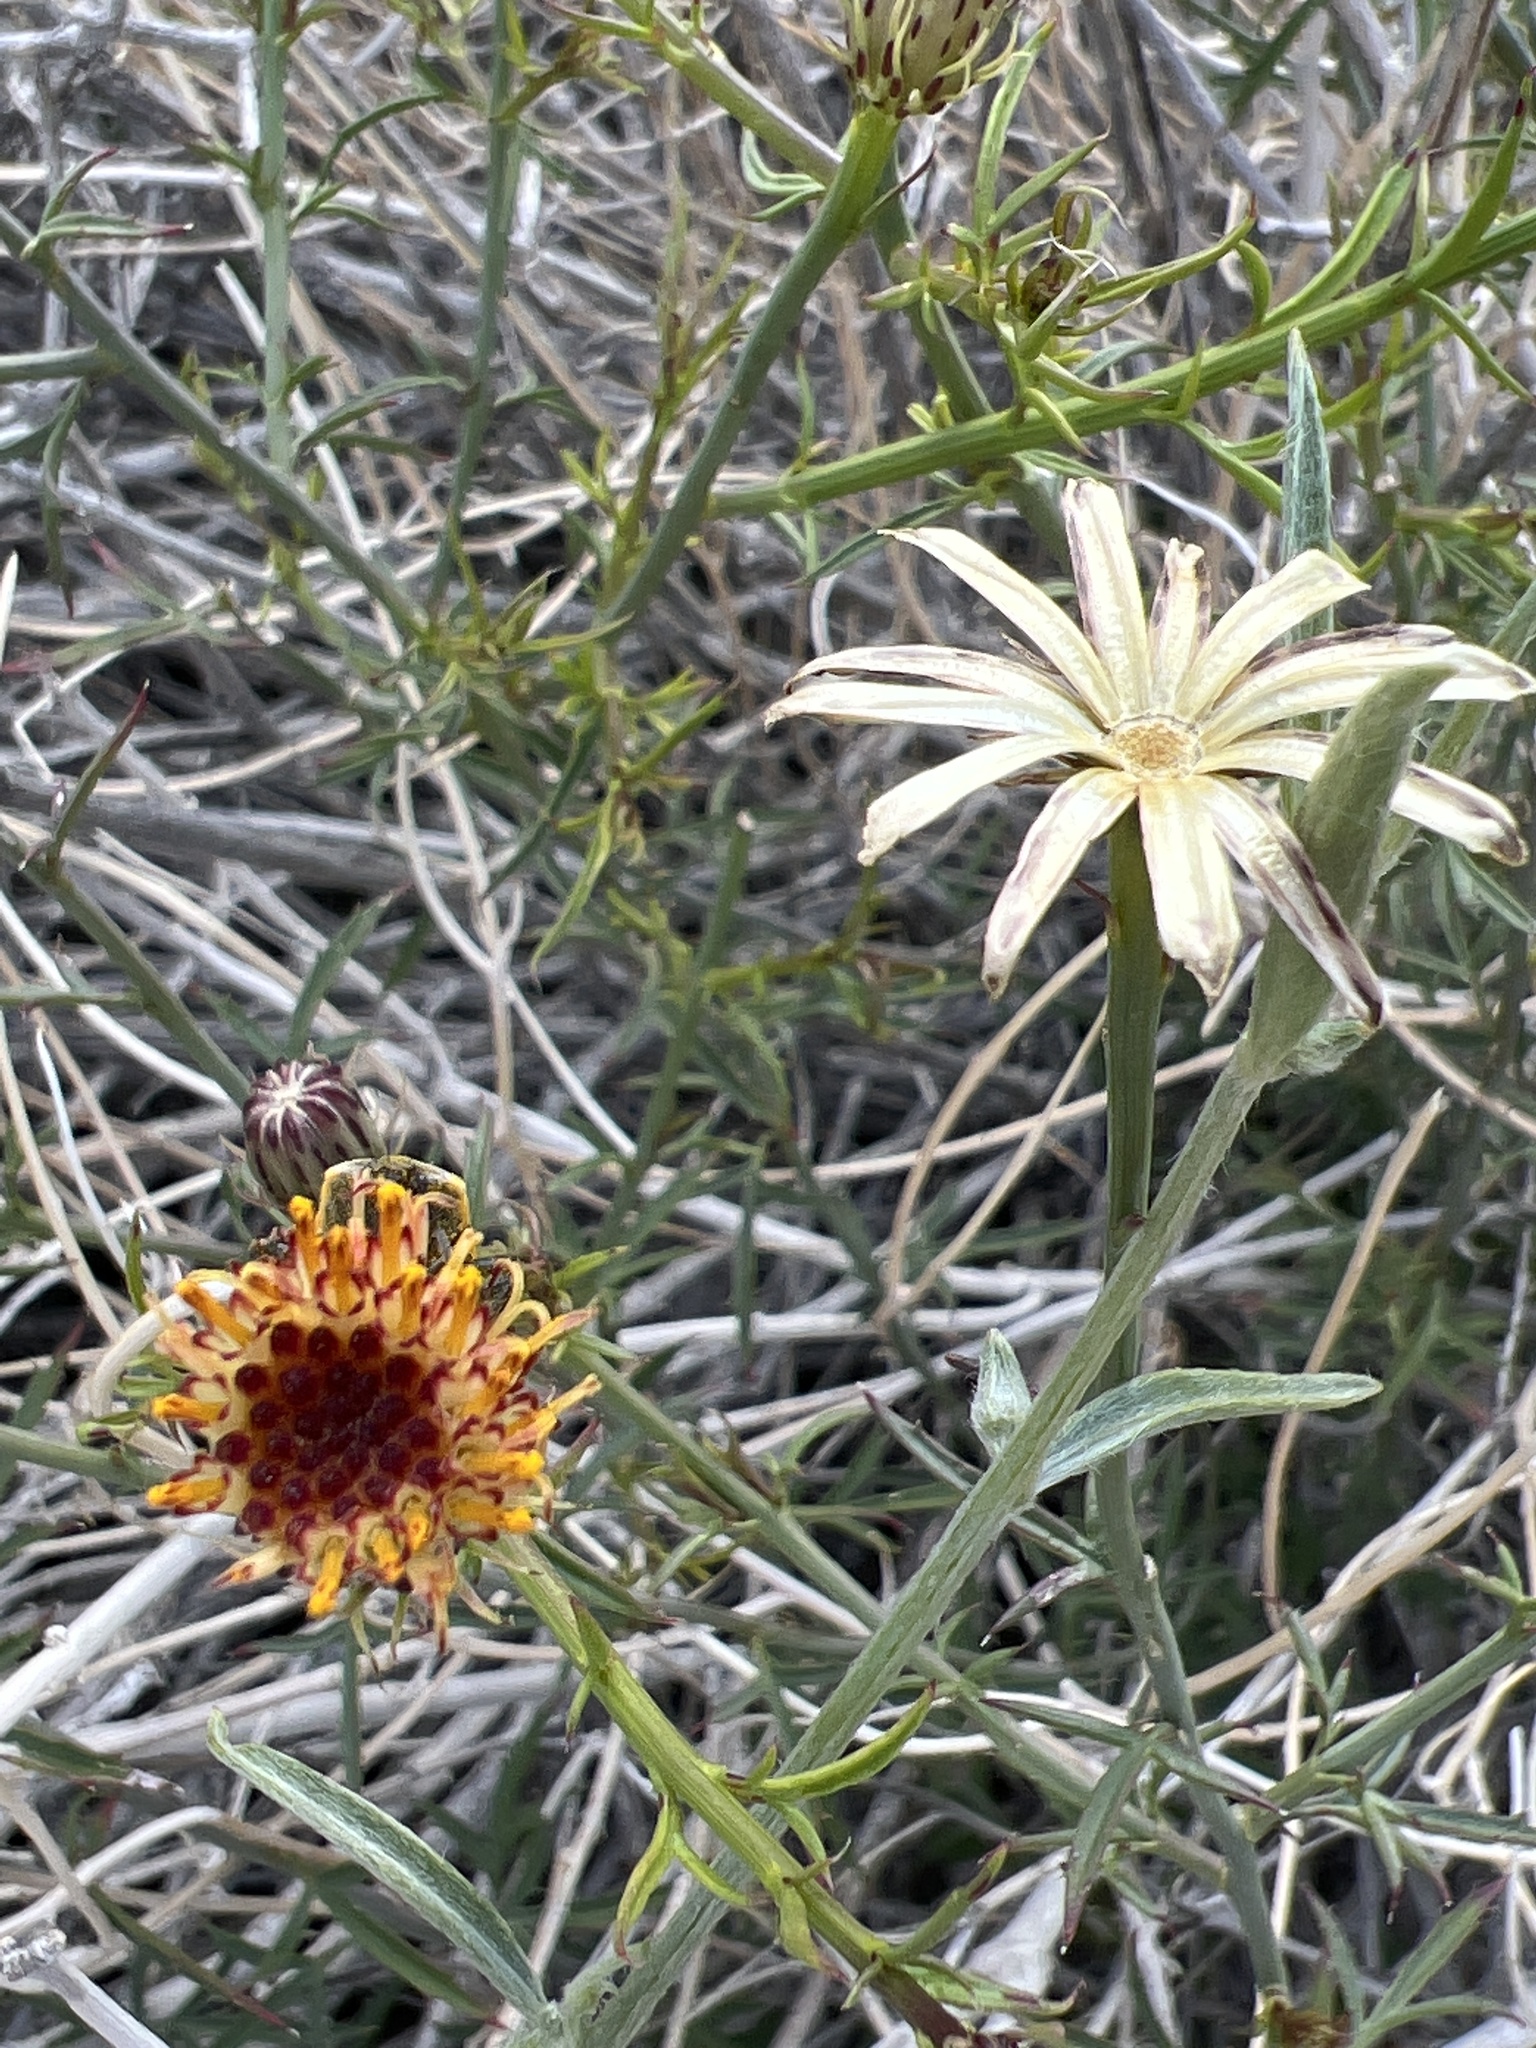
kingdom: Plantae
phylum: Tracheophyta
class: Magnoliopsida
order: Asterales
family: Asteraceae
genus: Adenophyllum
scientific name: Adenophyllum porophylloides
